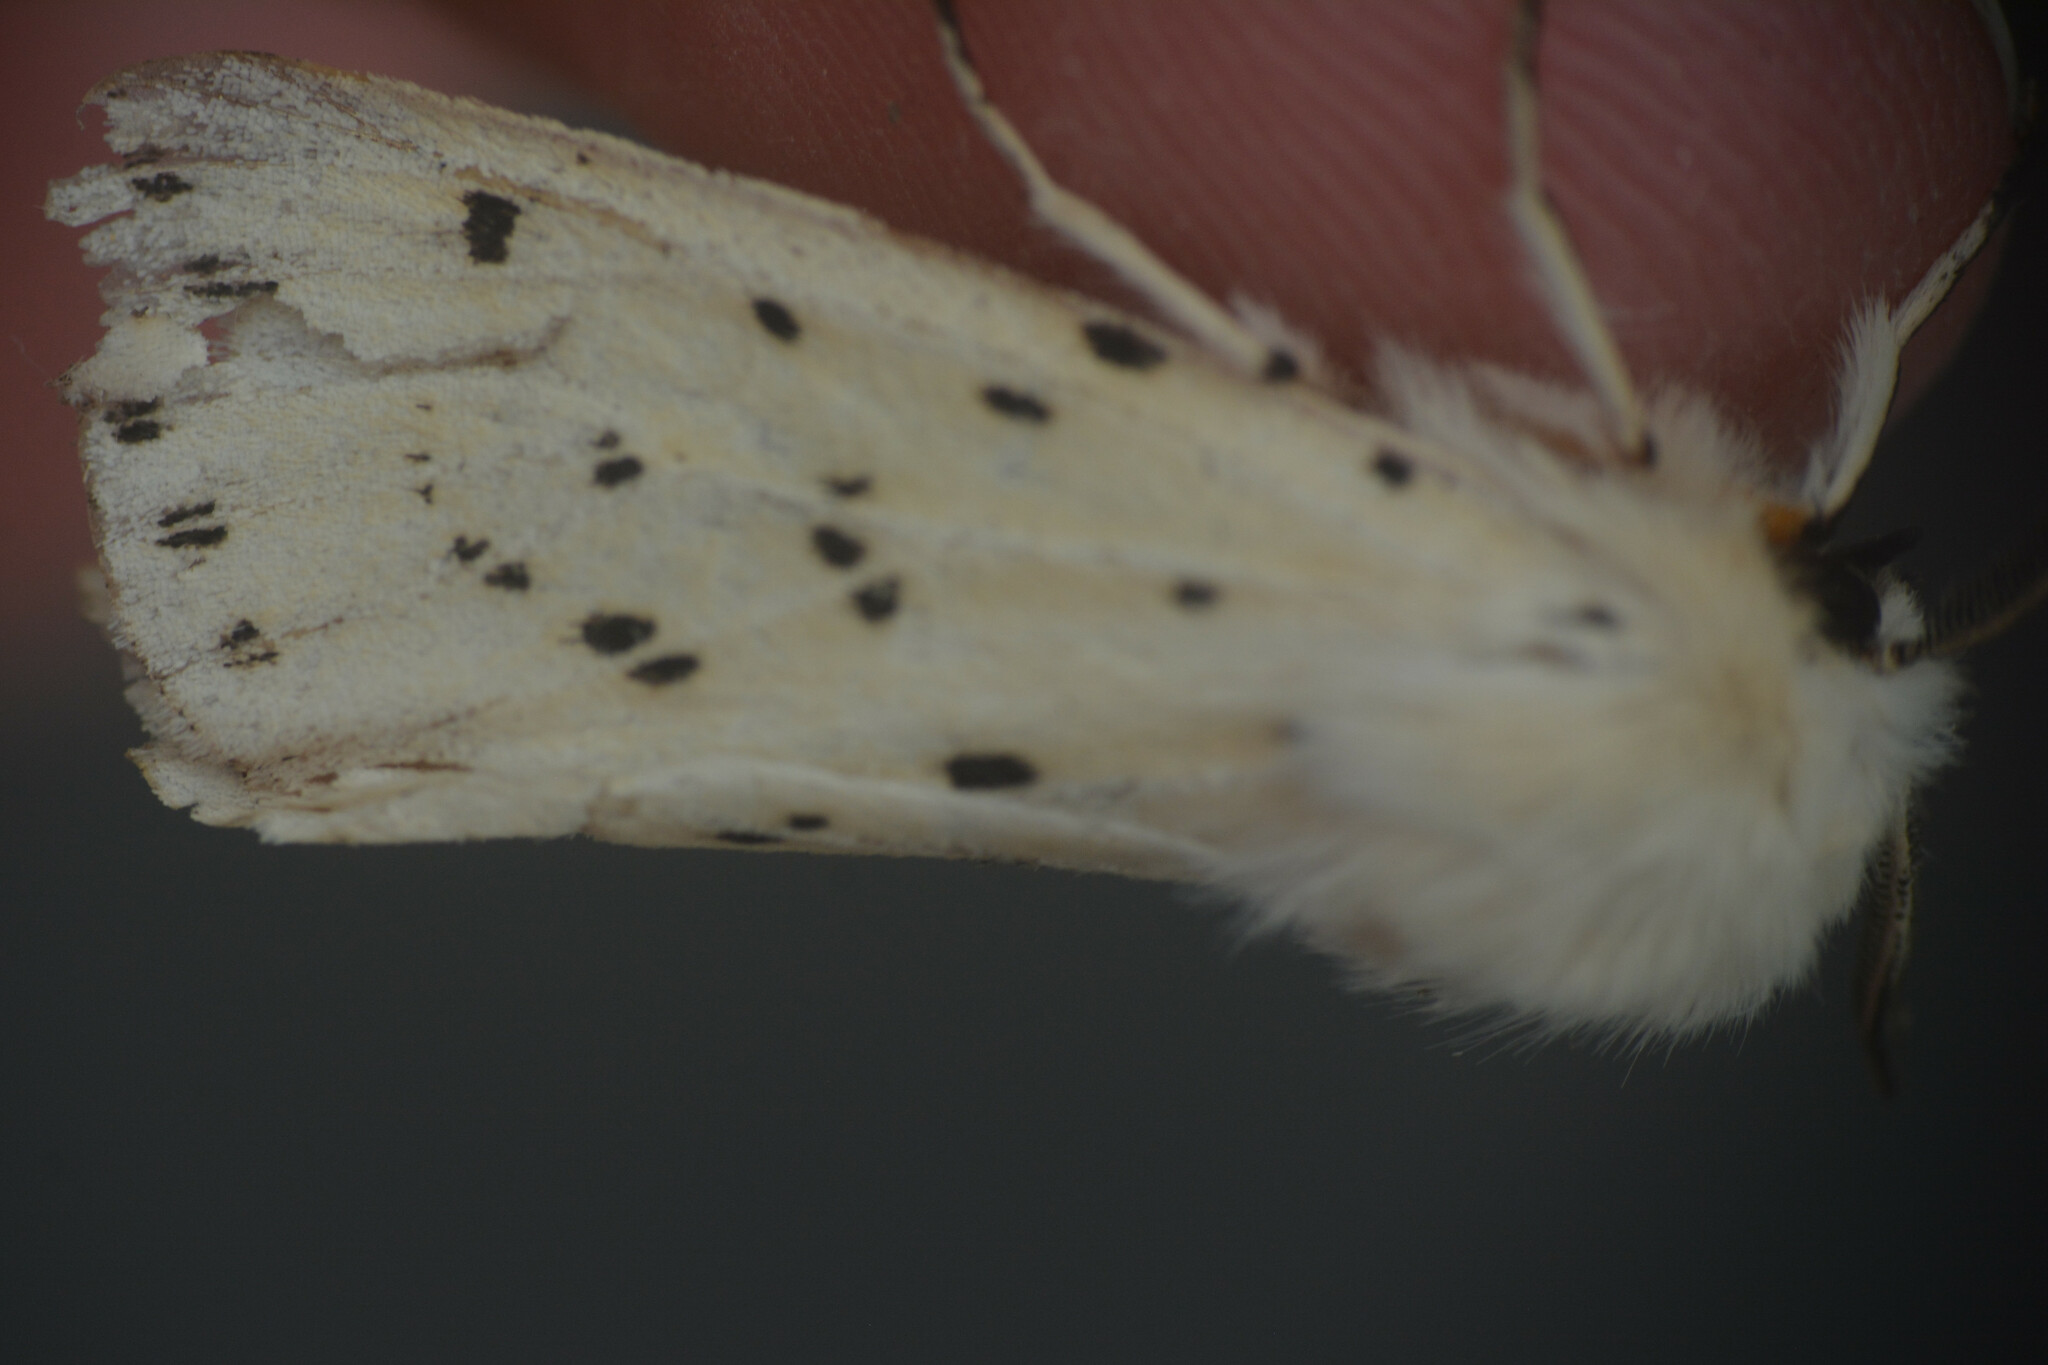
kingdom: Animalia
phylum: Arthropoda
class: Insecta
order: Lepidoptera
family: Erebidae
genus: Spilosoma
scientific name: Spilosoma lubricipeda
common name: White ermine
